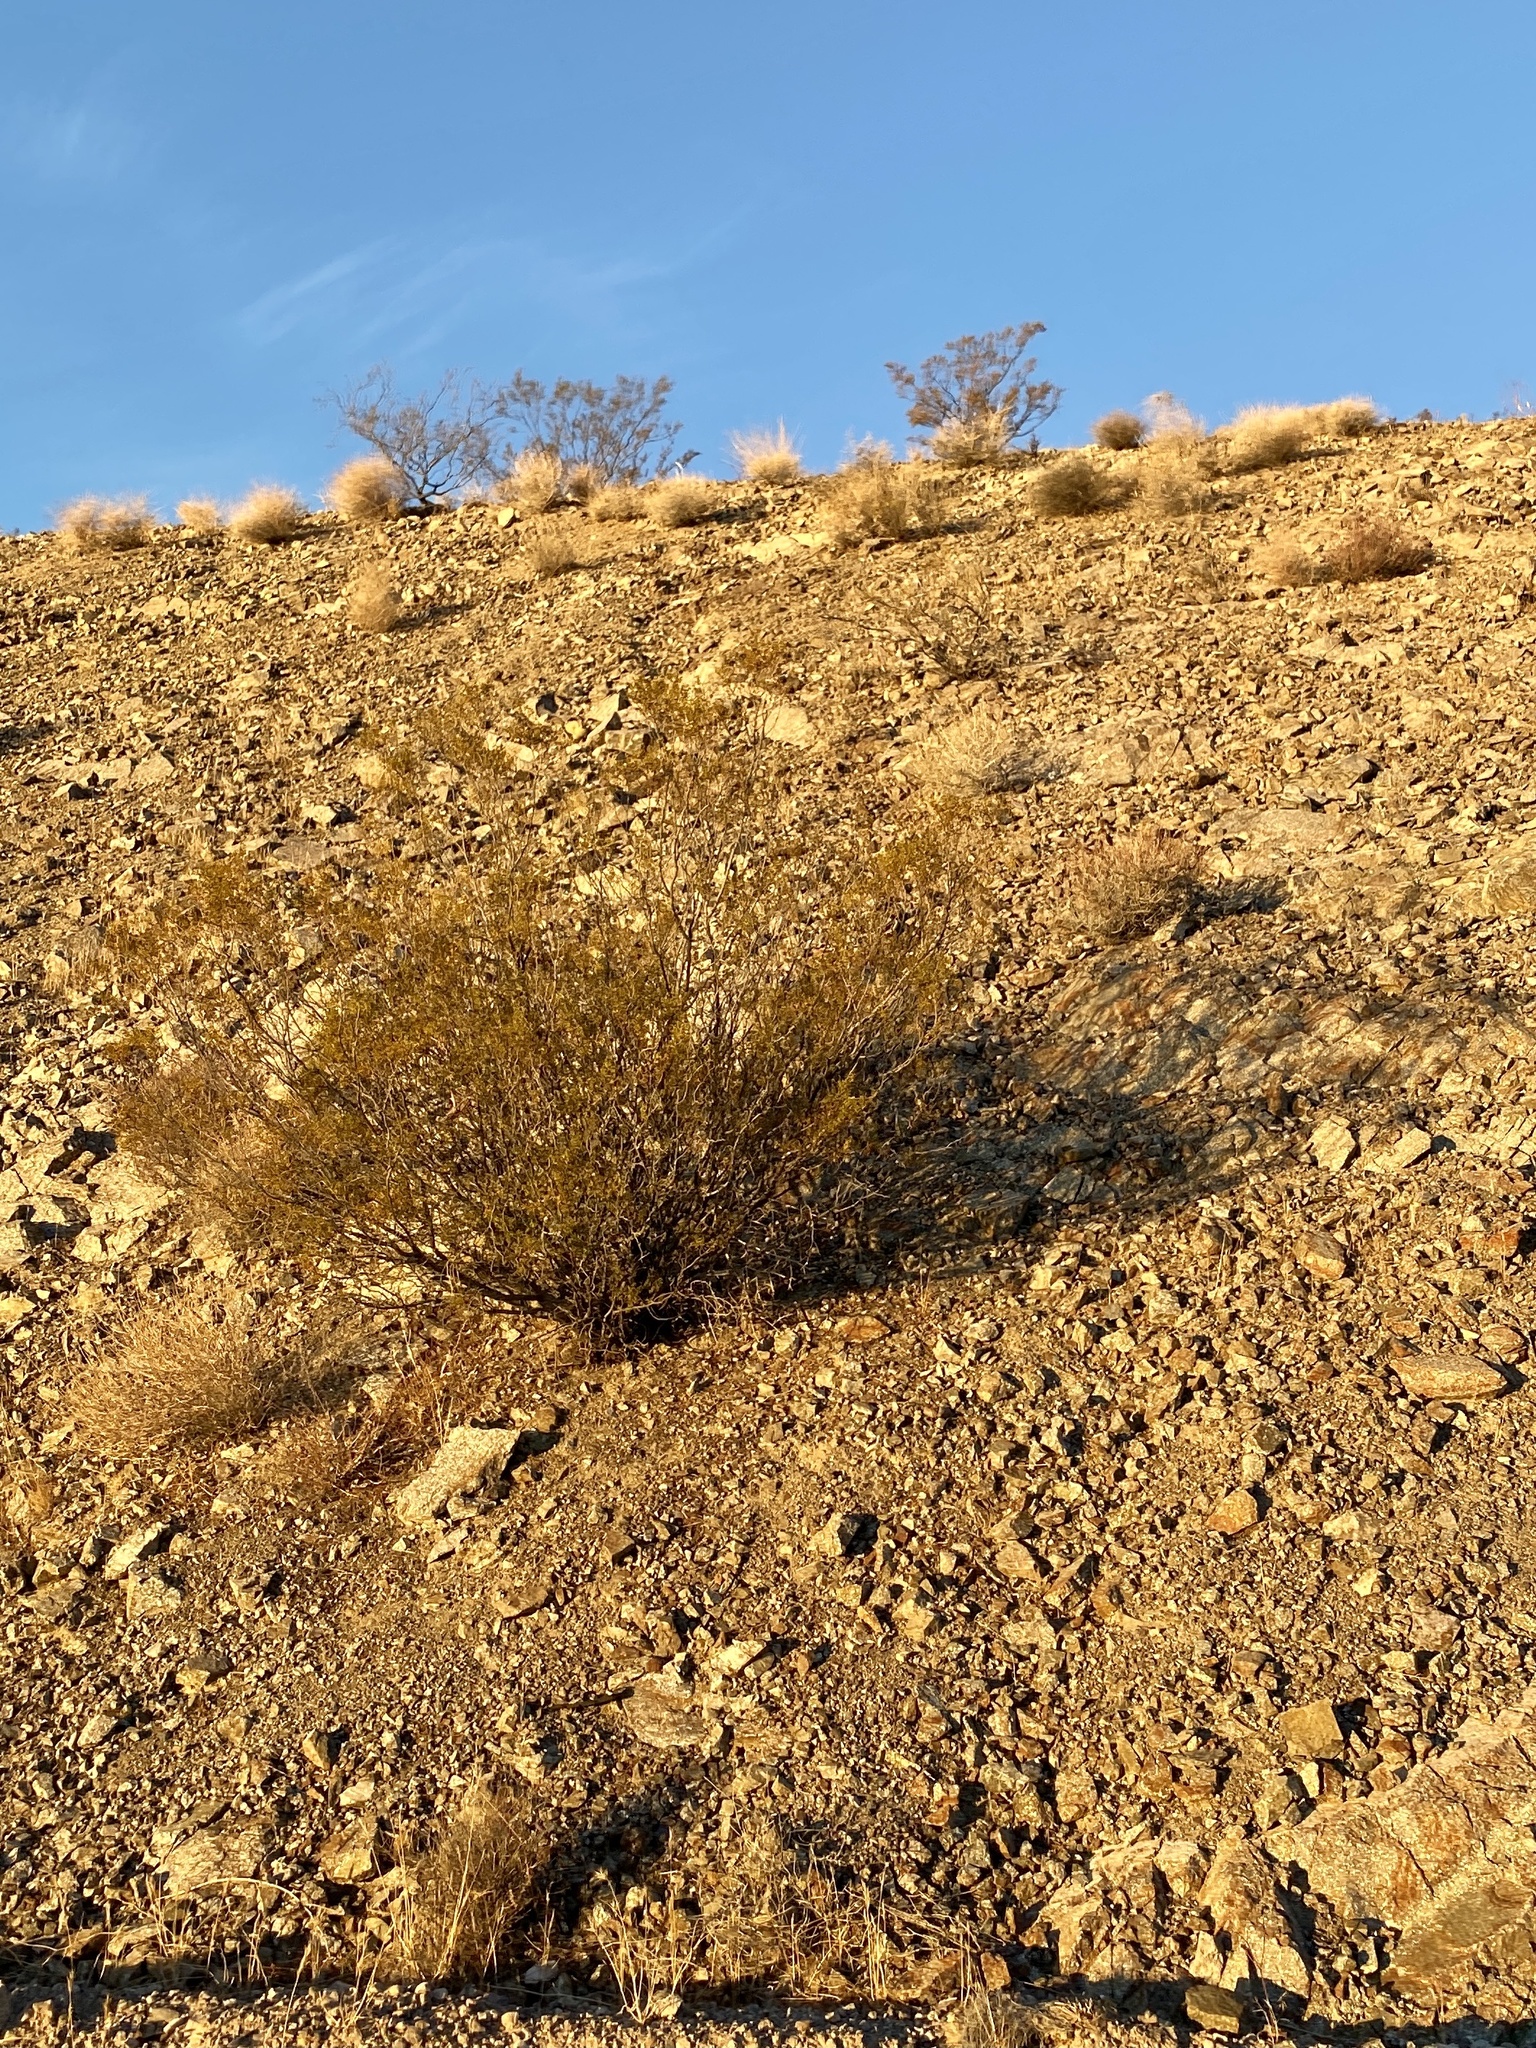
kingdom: Plantae
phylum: Tracheophyta
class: Magnoliopsida
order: Zygophyllales
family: Zygophyllaceae
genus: Larrea
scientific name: Larrea tridentata
